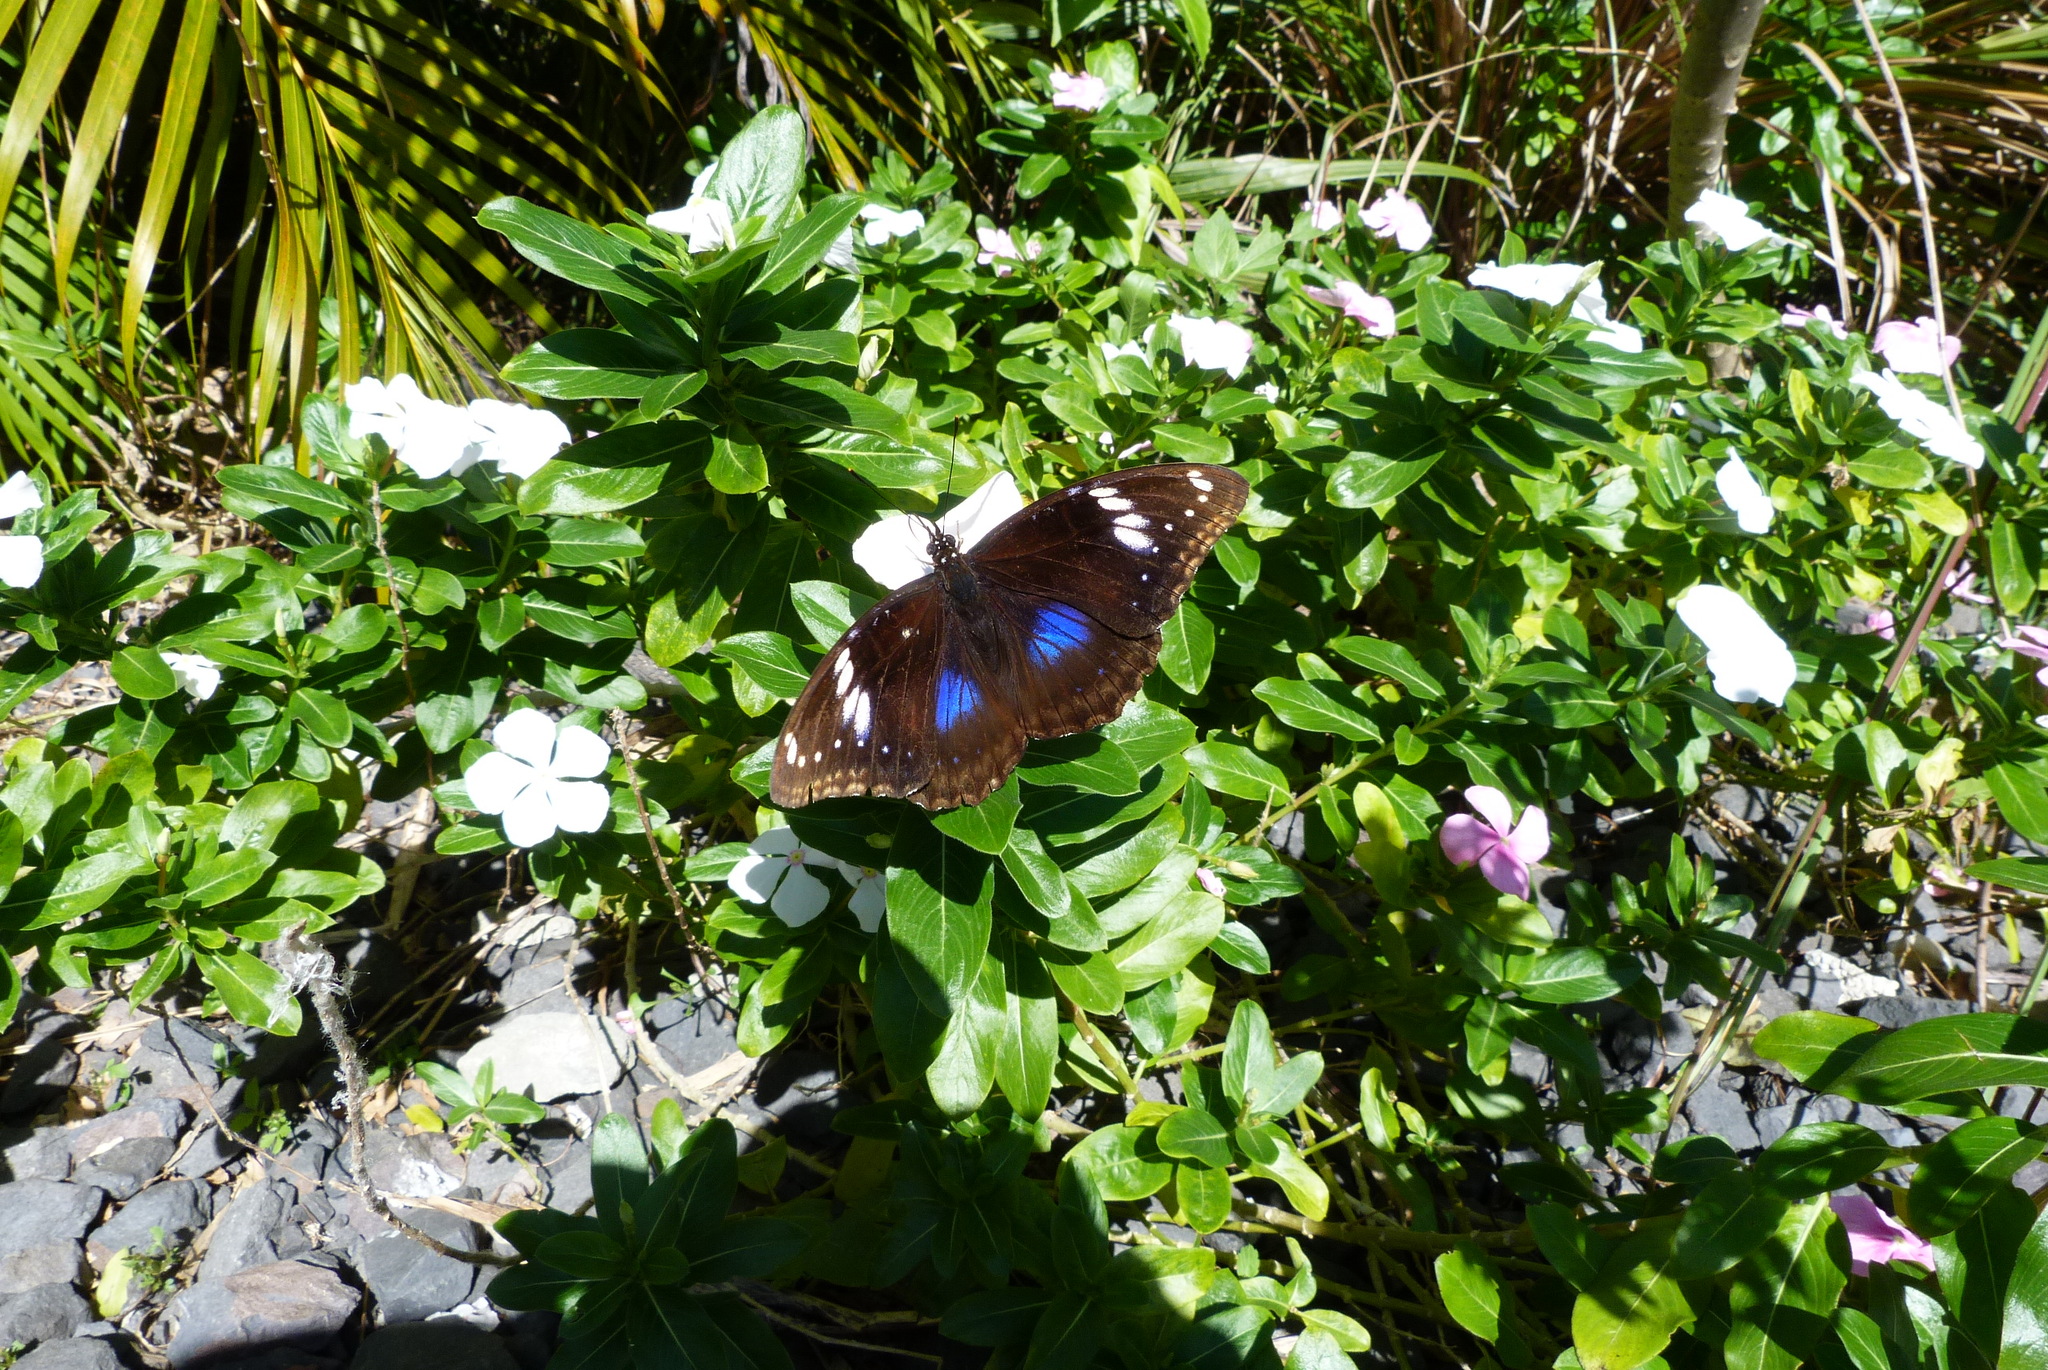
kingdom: Animalia
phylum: Arthropoda
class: Insecta
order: Lepidoptera
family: Nymphalidae
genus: Hypolimnas
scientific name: Hypolimnas bolina
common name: Great eggfly
